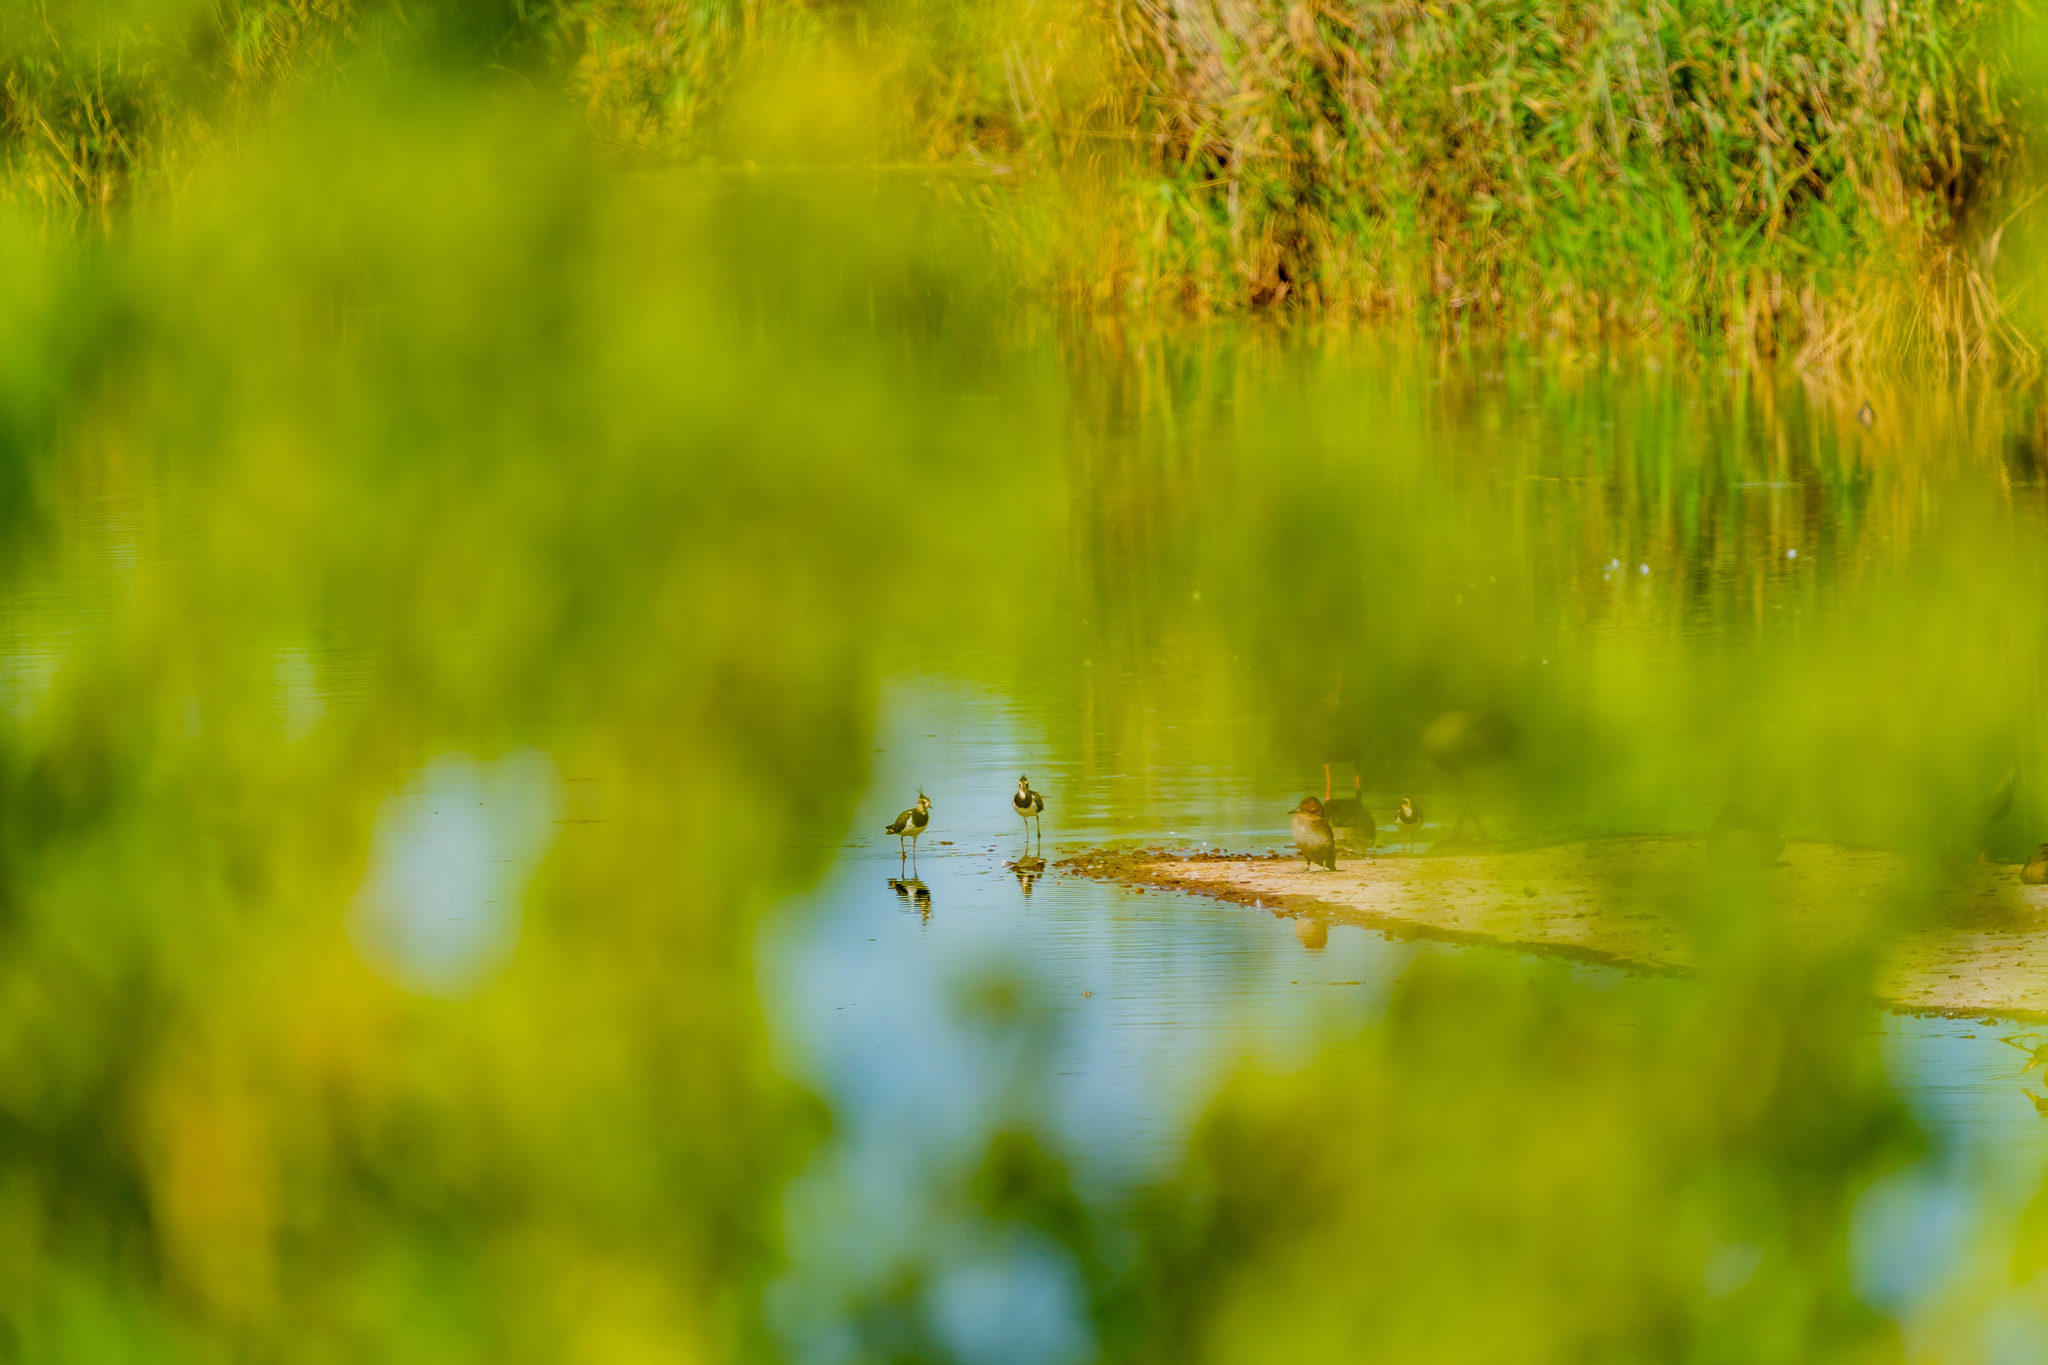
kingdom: Animalia
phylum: Chordata
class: Aves
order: Charadriiformes
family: Charadriidae
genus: Vanellus
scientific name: Vanellus vanellus
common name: Northern lapwing
